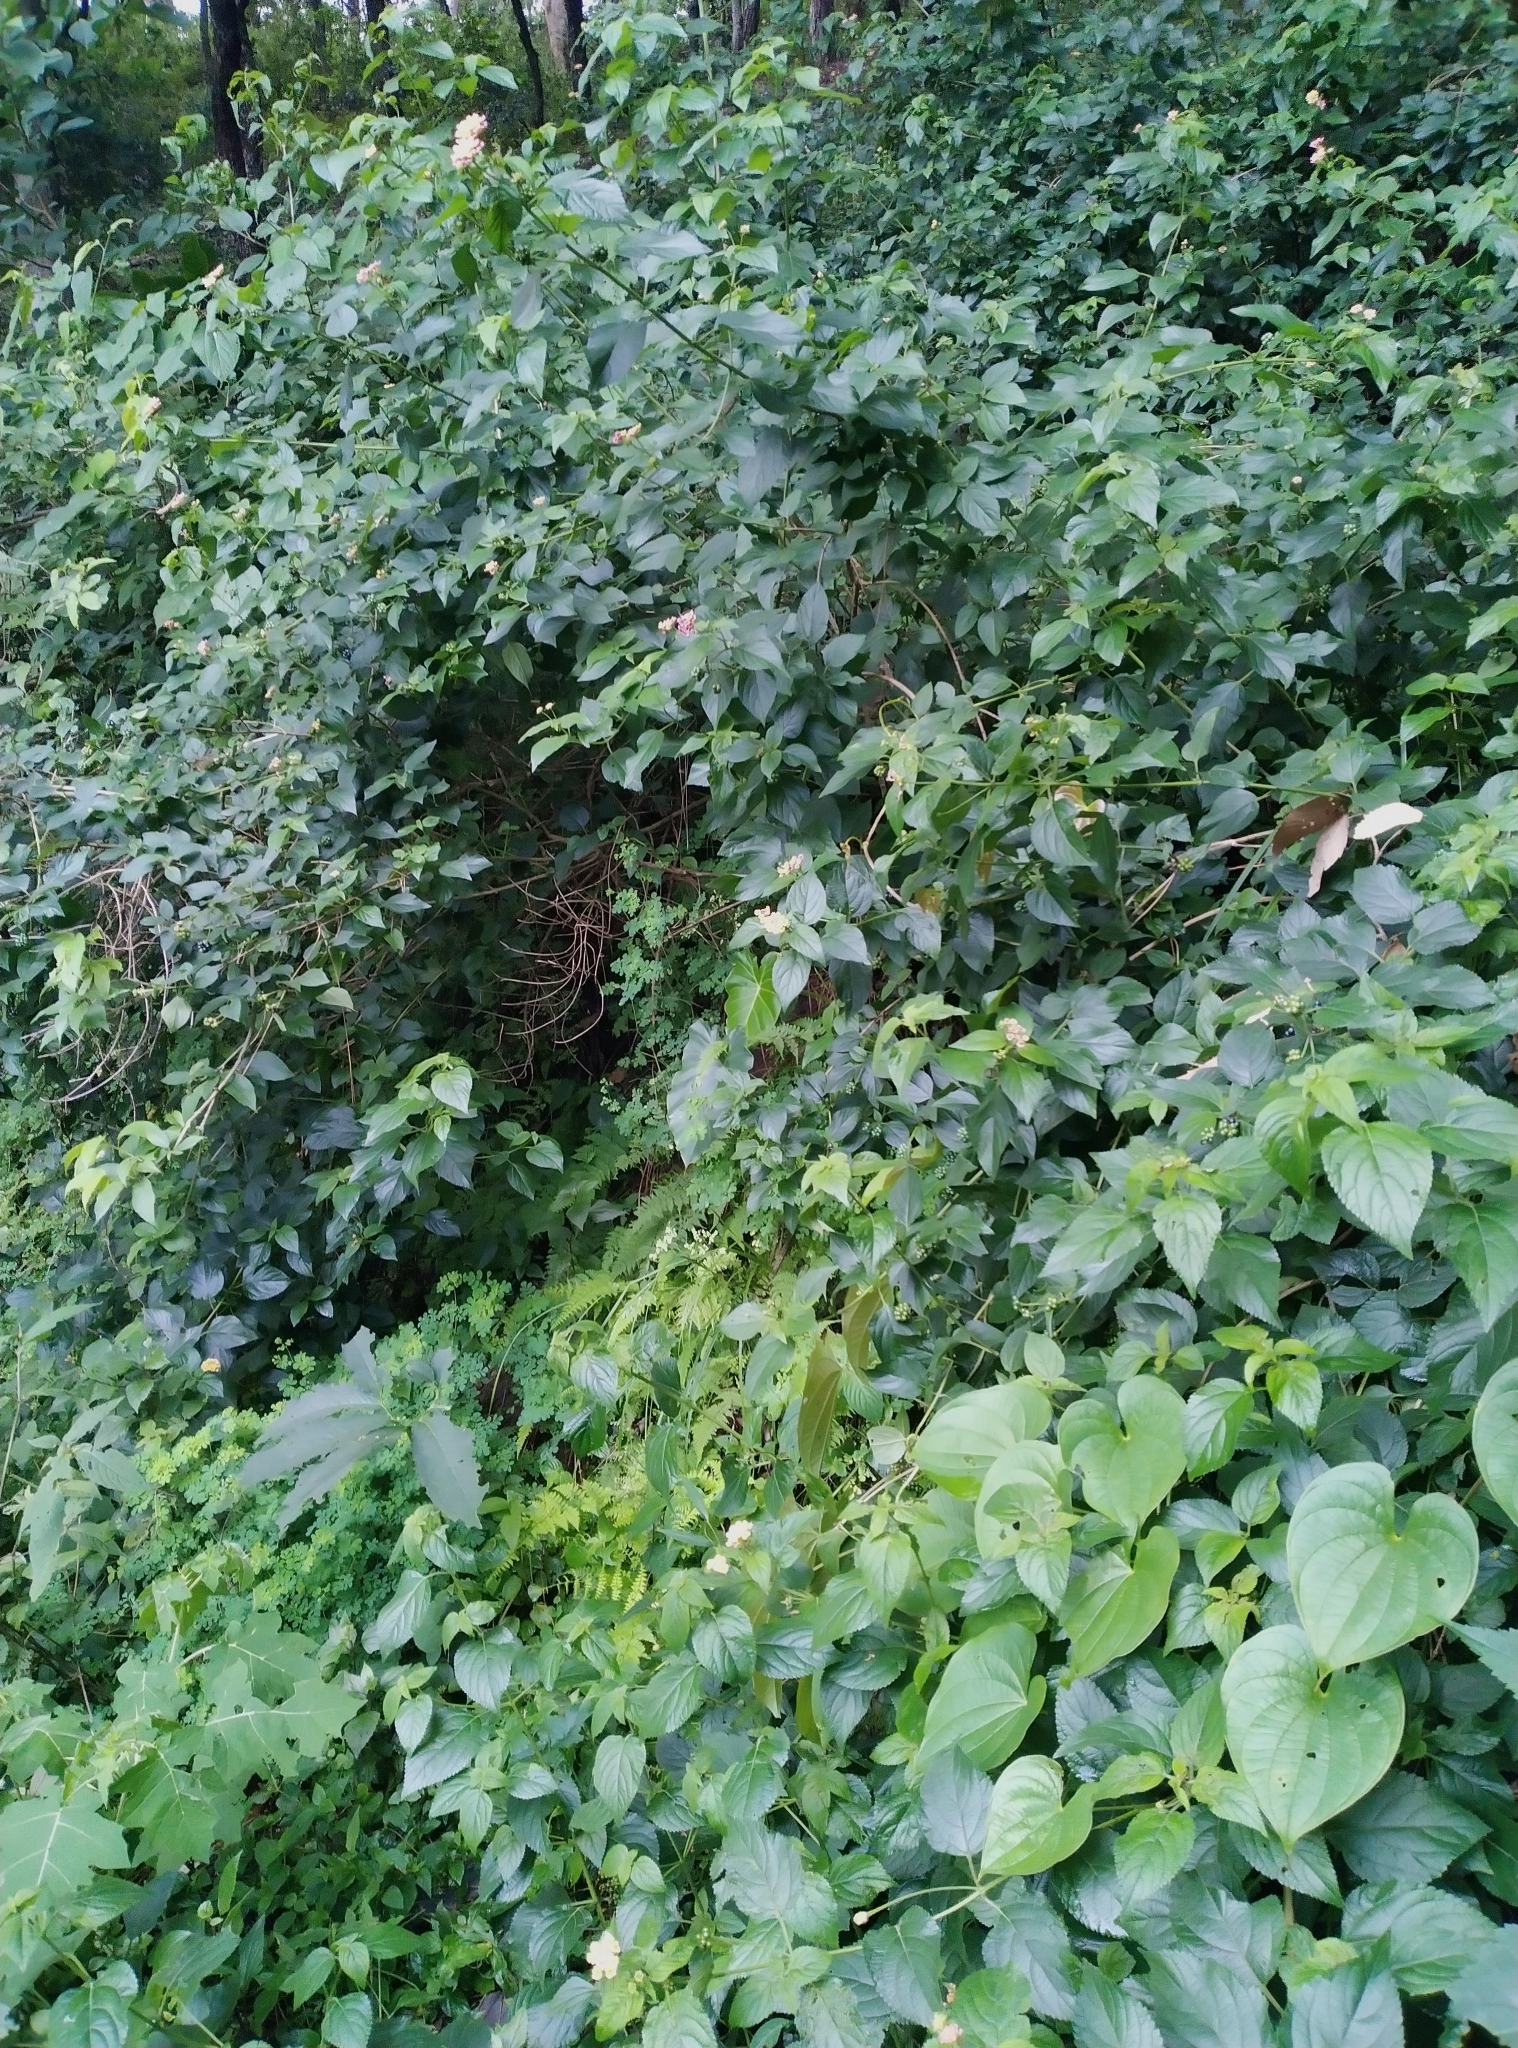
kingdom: Plantae
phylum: Tracheophyta
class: Magnoliopsida
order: Lamiales
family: Verbenaceae
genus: Lantana
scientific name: Lantana camara
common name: Lantana
